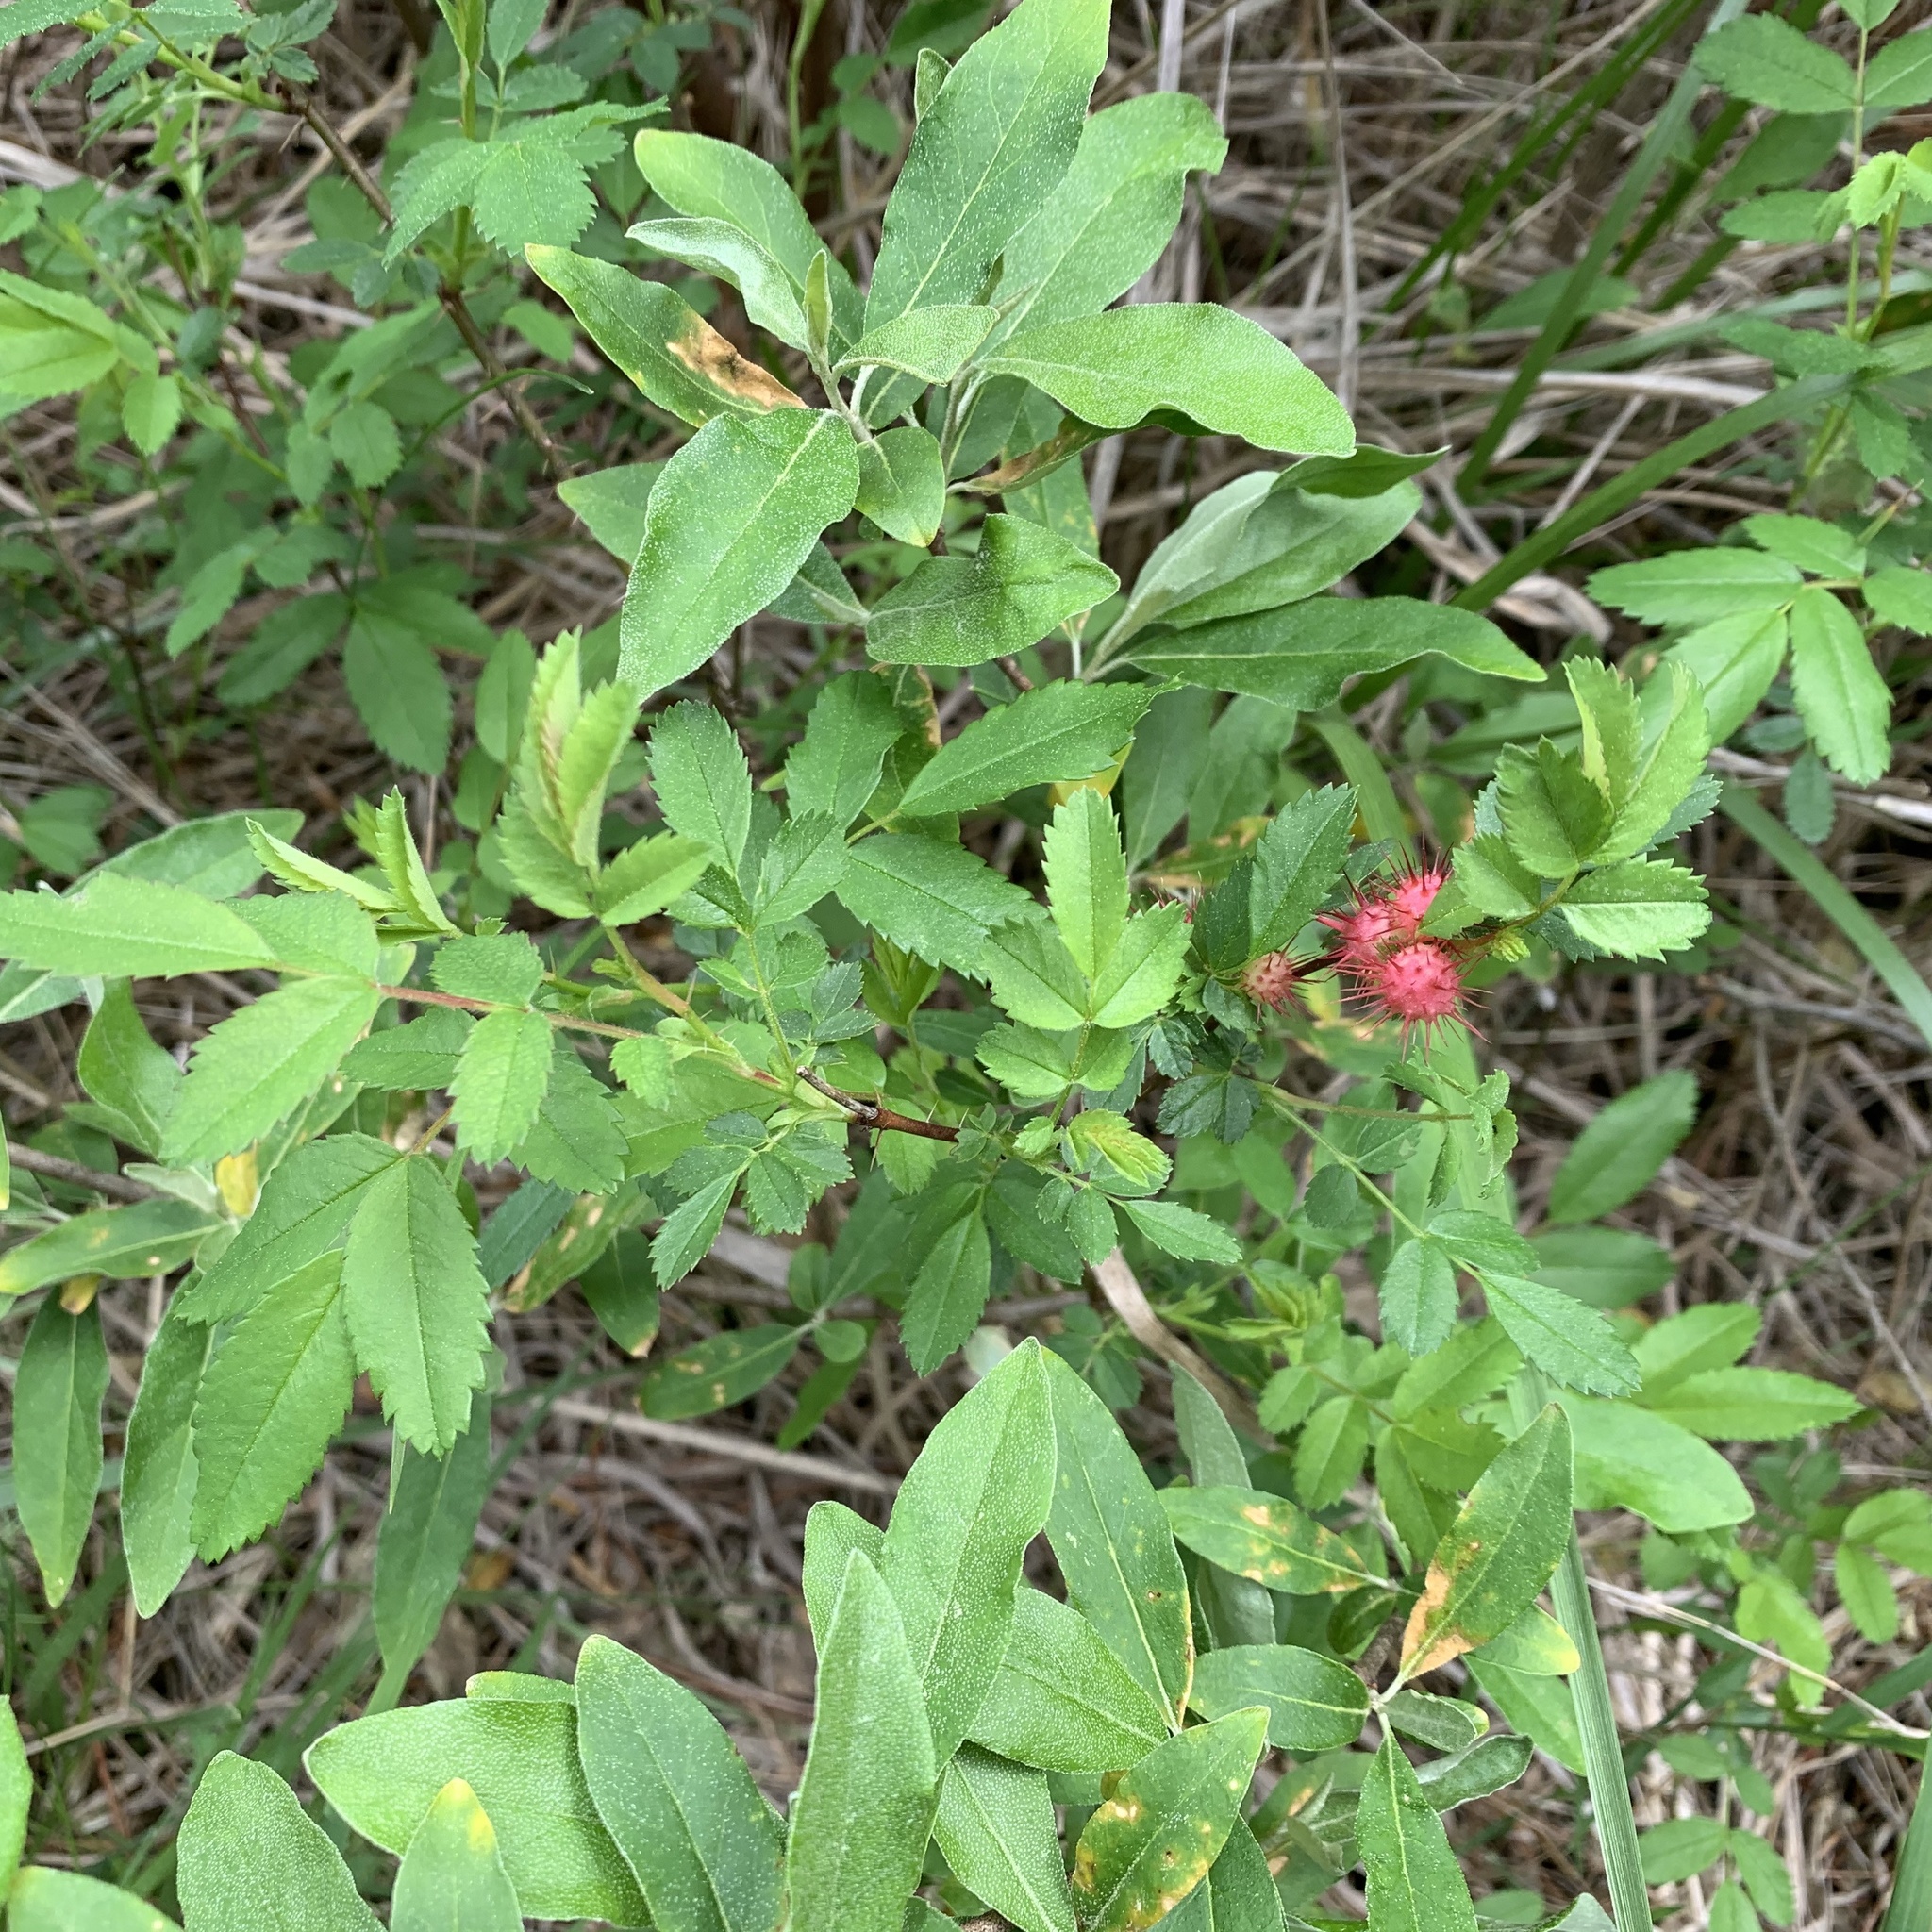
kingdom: Animalia
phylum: Arthropoda
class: Insecta
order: Hymenoptera
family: Cynipidae
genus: Diplolepis
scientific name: Diplolepis bicolor
